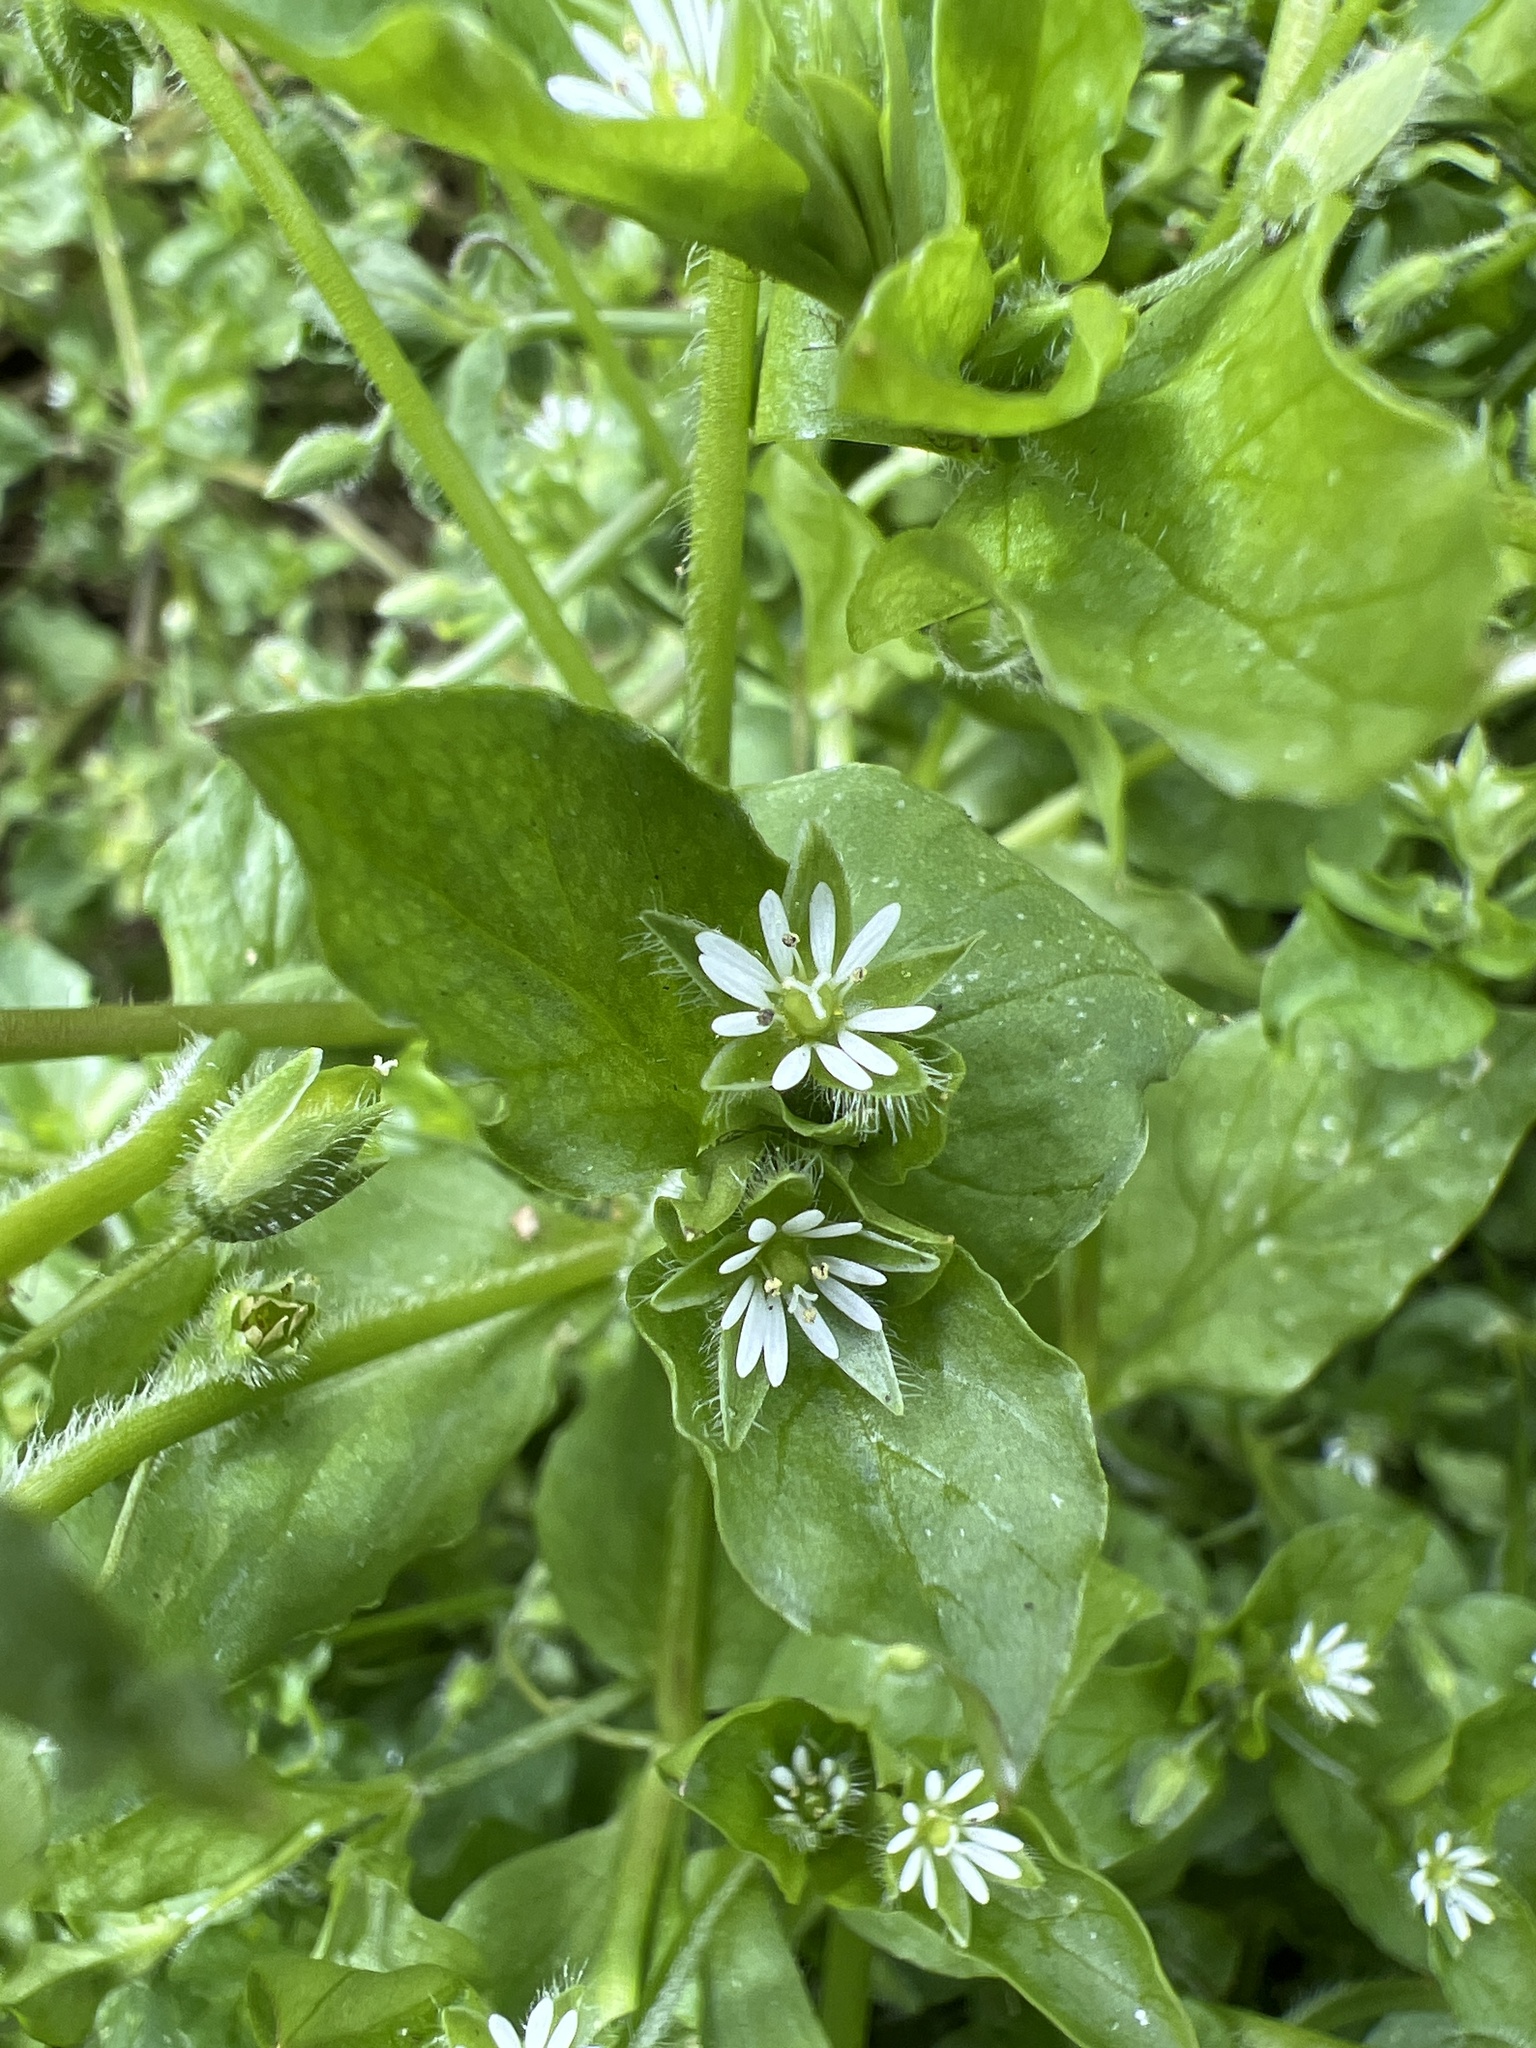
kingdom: Plantae
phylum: Tracheophyta
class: Magnoliopsida
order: Caryophyllales
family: Caryophyllaceae
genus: Stellaria
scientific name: Stellaria media
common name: Common chickweed
